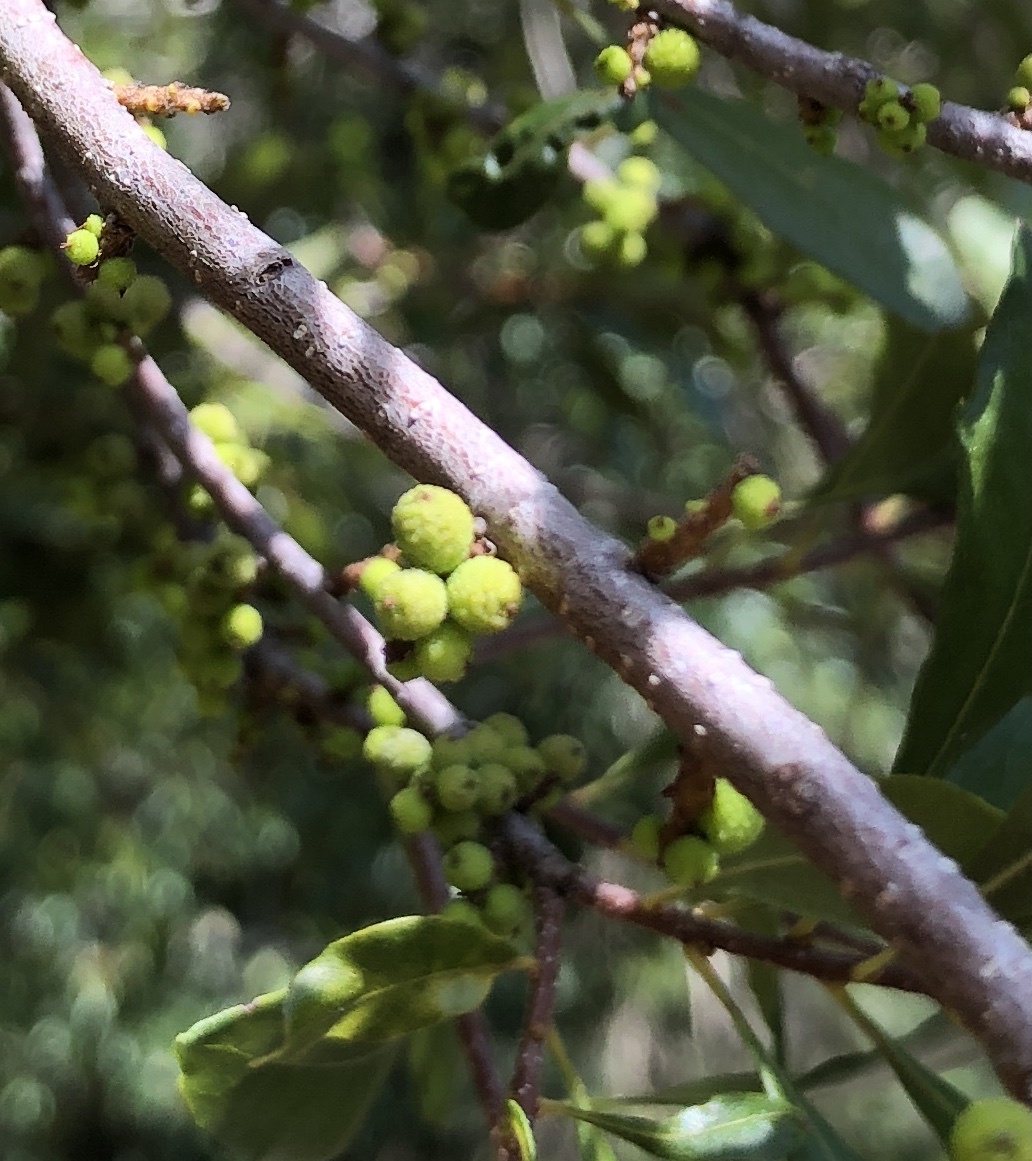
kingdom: Plantae
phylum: Tracheophyta
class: Magnoliopsida
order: Fagales
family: Myricaceae
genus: Morella
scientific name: Morella cerifera
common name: Wax myrtle
